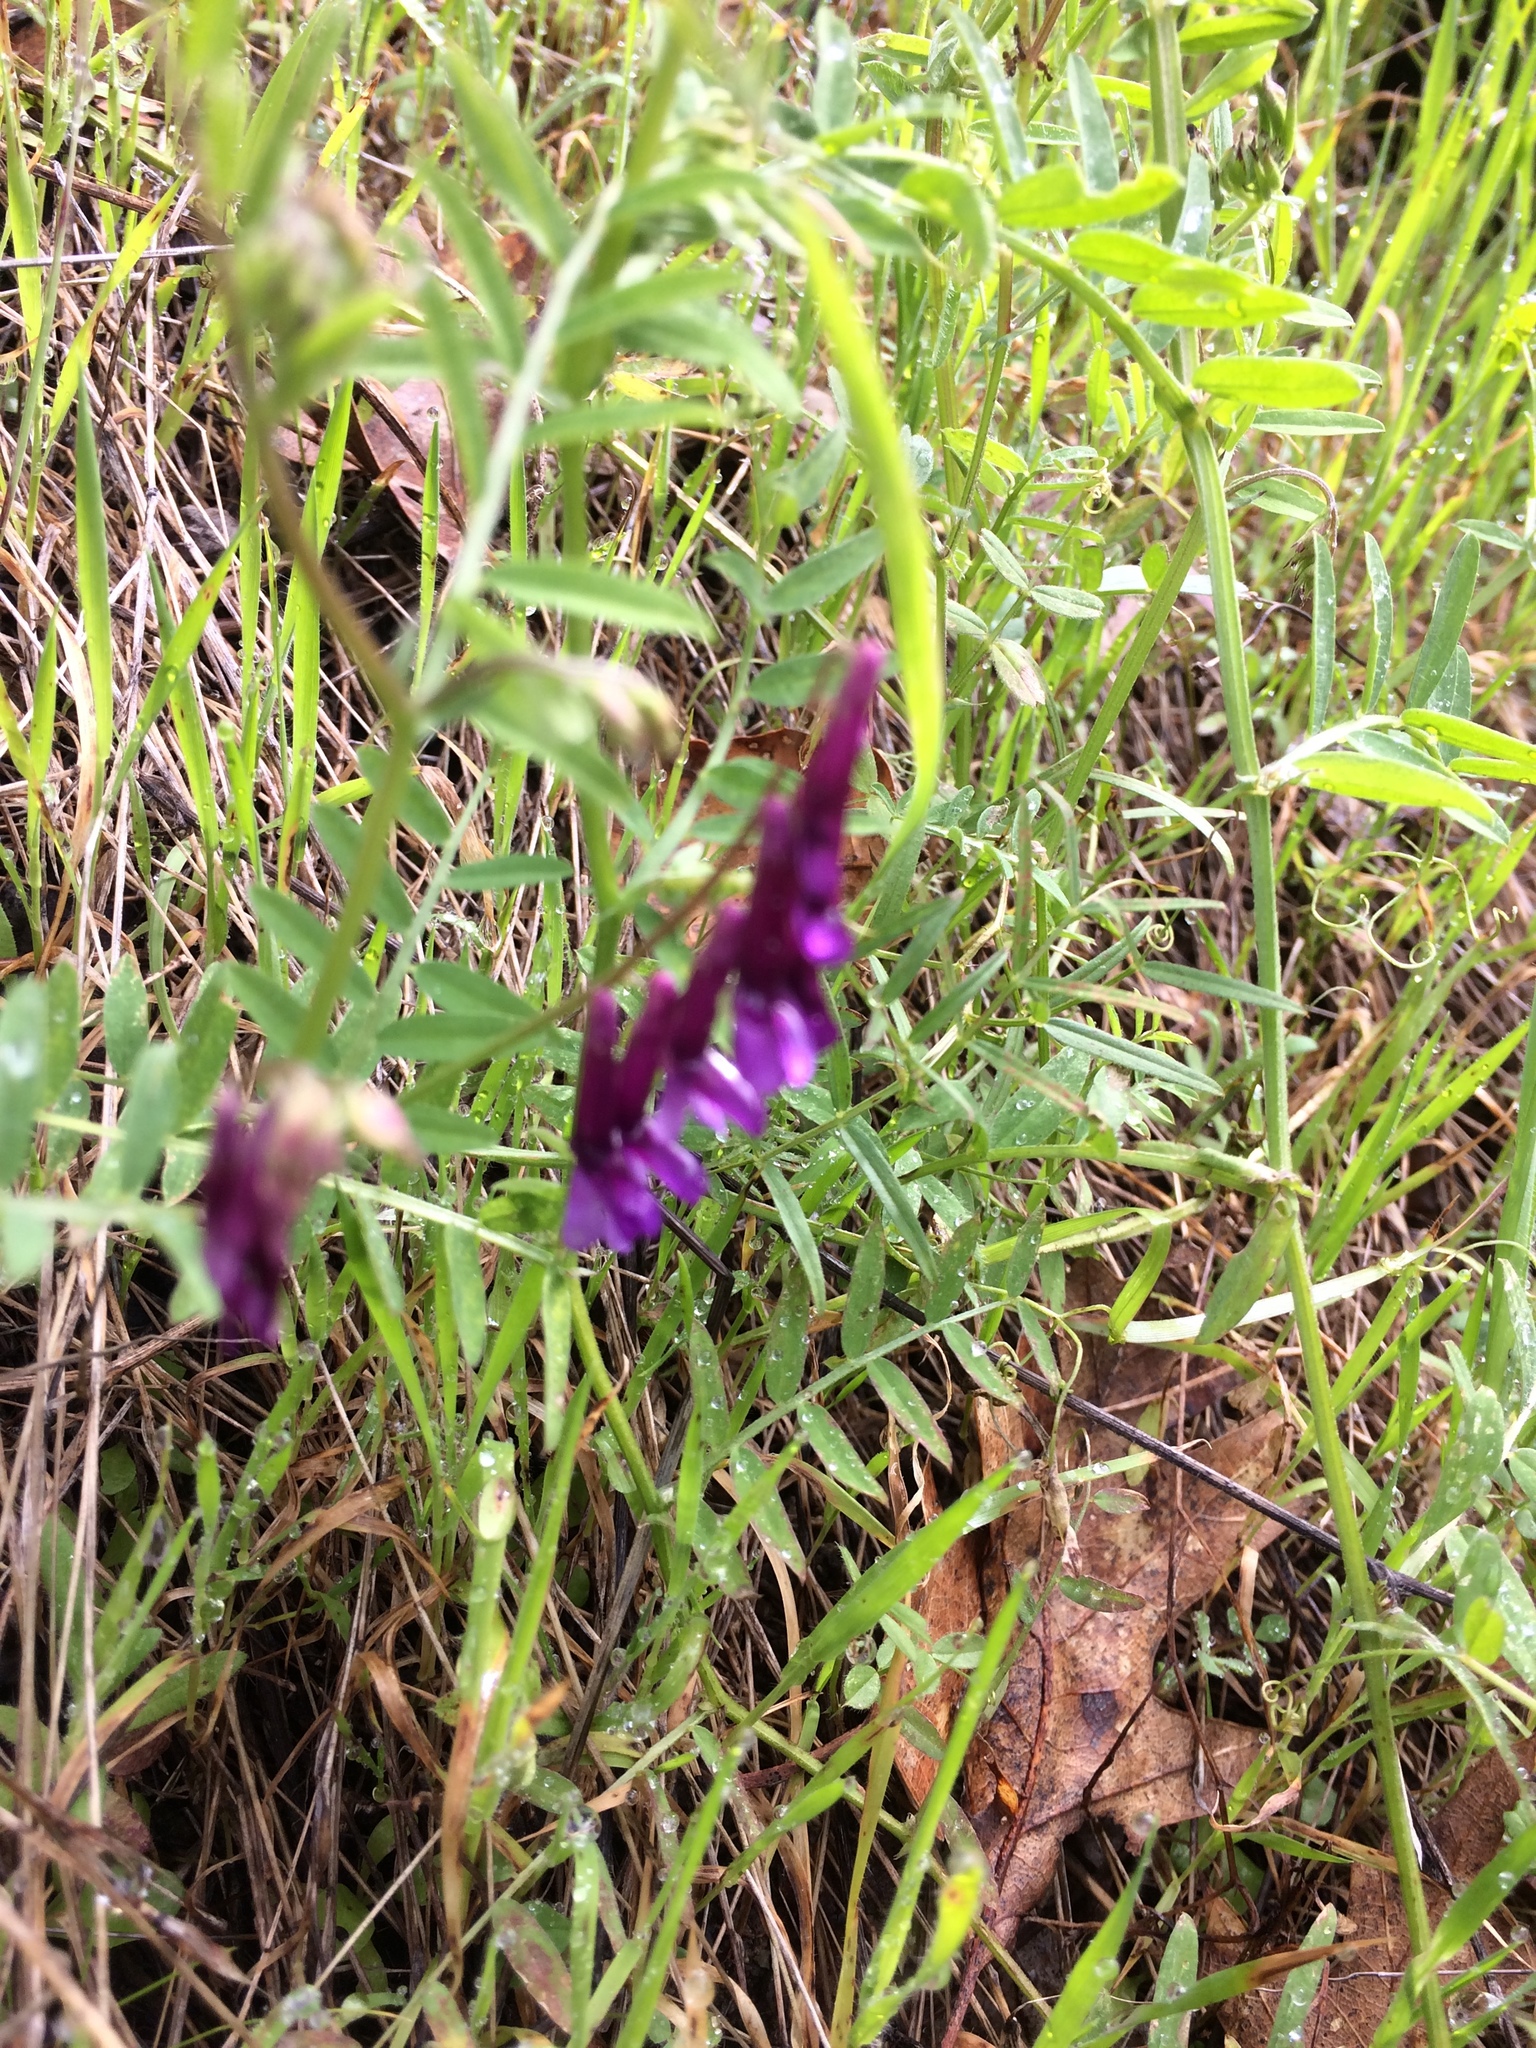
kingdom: Plantae
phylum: Tracheophyta
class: Magnoliopsida
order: Fabales
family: Fabaceae
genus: Vicia
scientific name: Vicia villosa
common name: Fodder vetch
